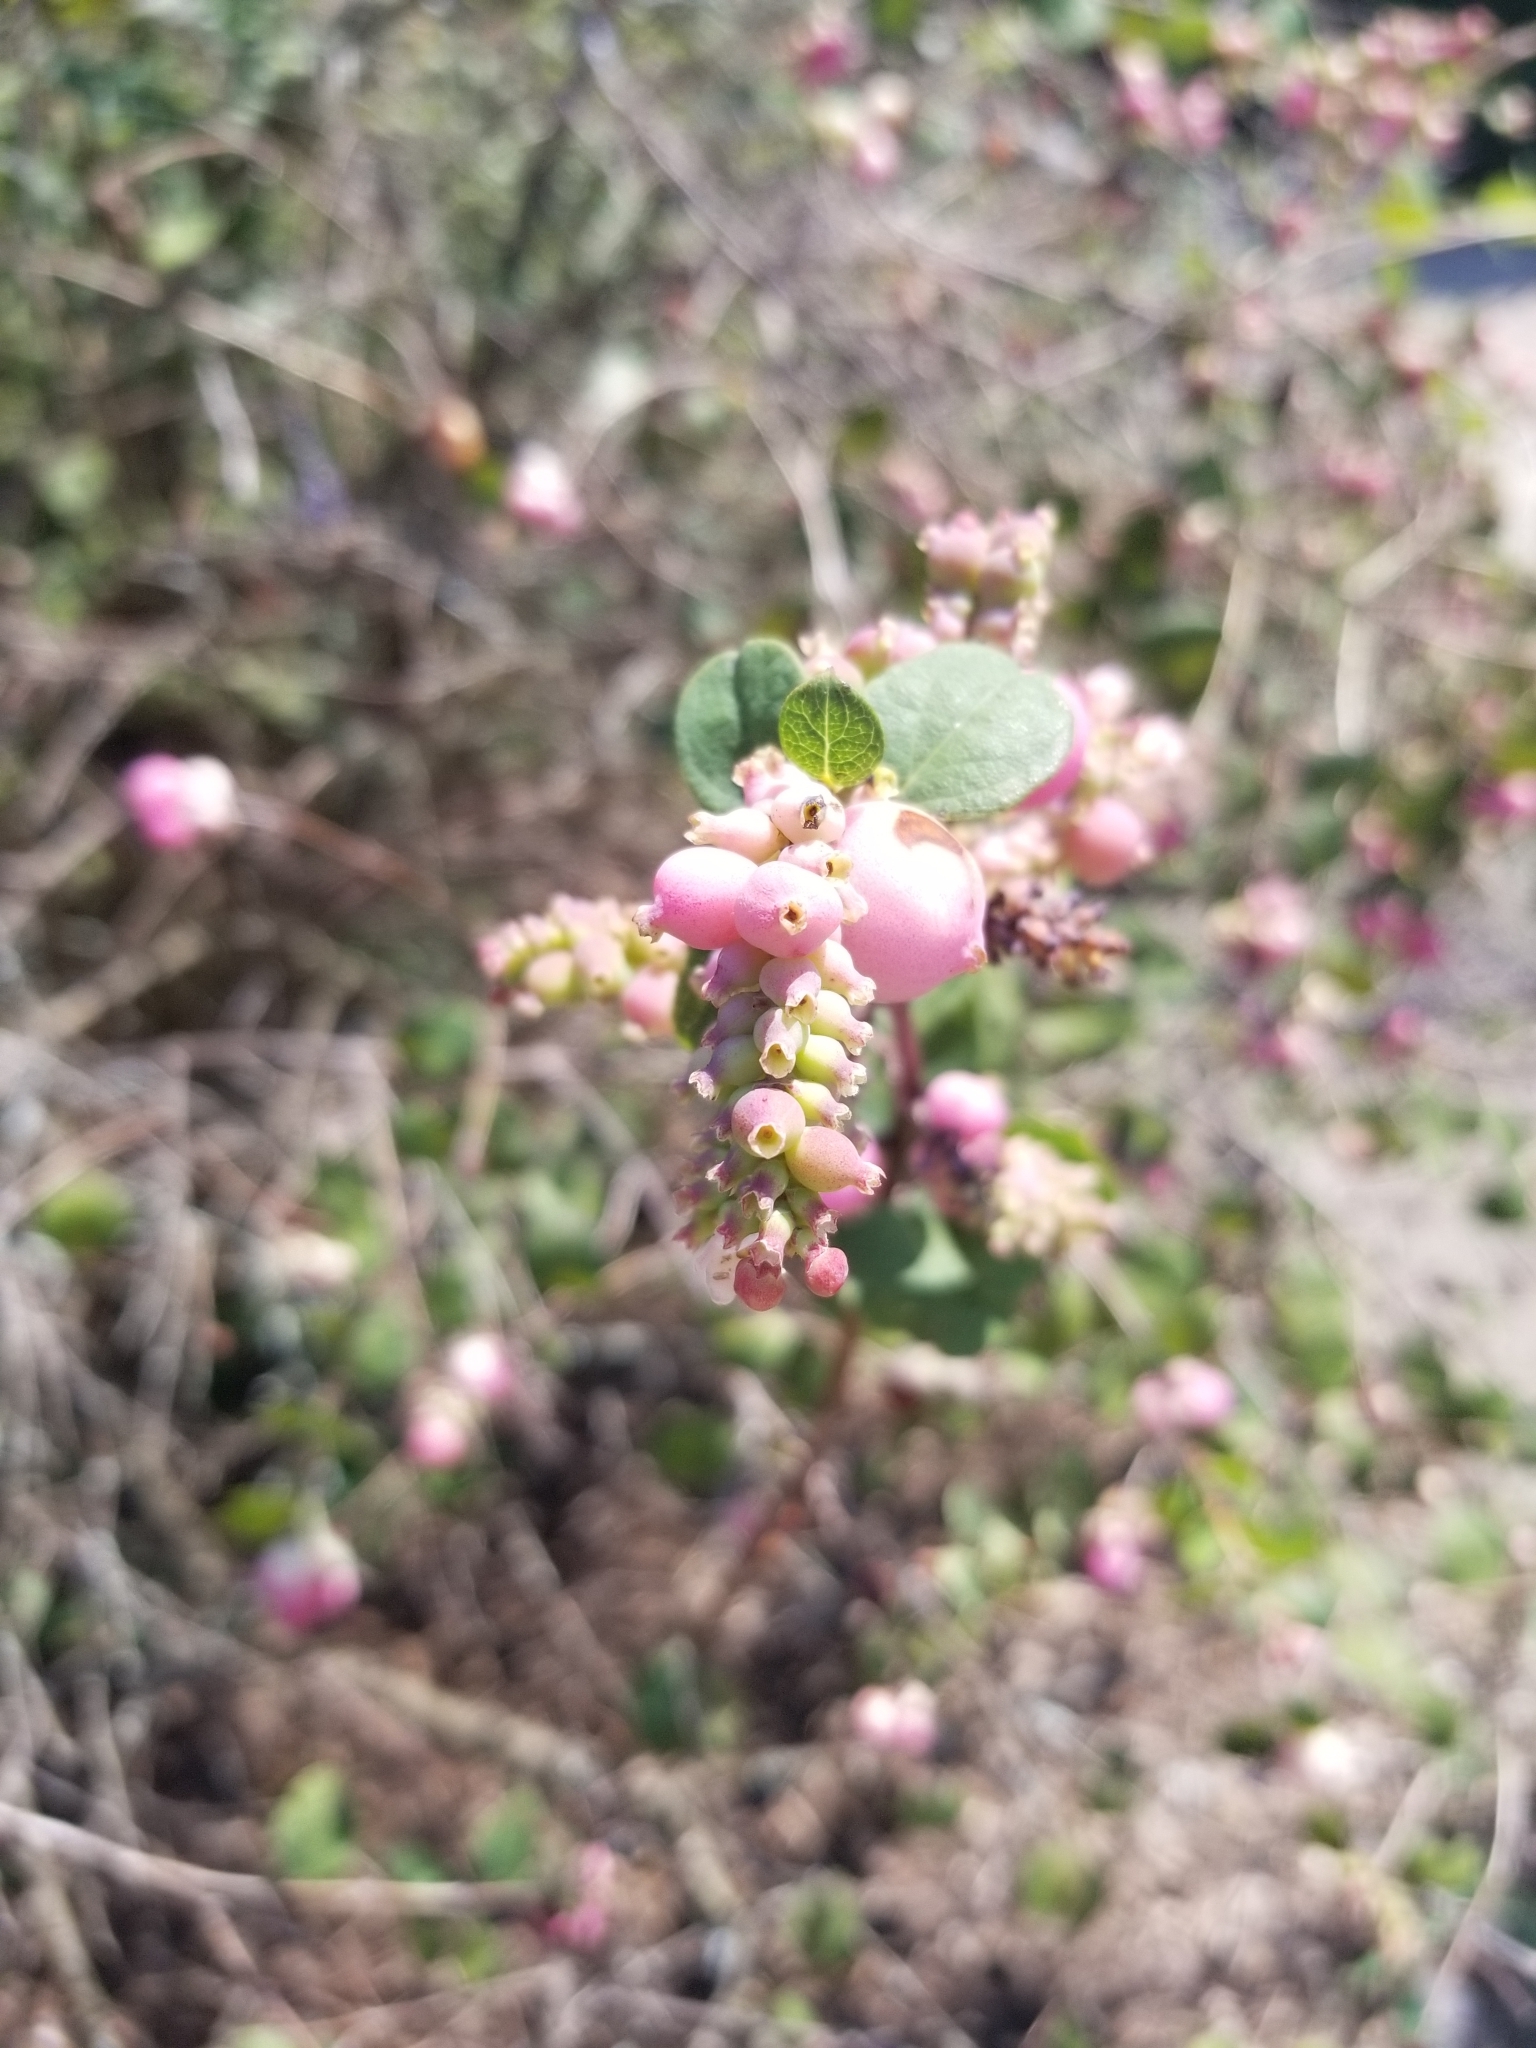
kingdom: Plantae
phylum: Tracheophyta
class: Magnoliopsida
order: Dipsacales
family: Caprifoliaceae
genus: Symphoricarpos
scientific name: Symphoricarpos orbiculatus
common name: Coralberry
